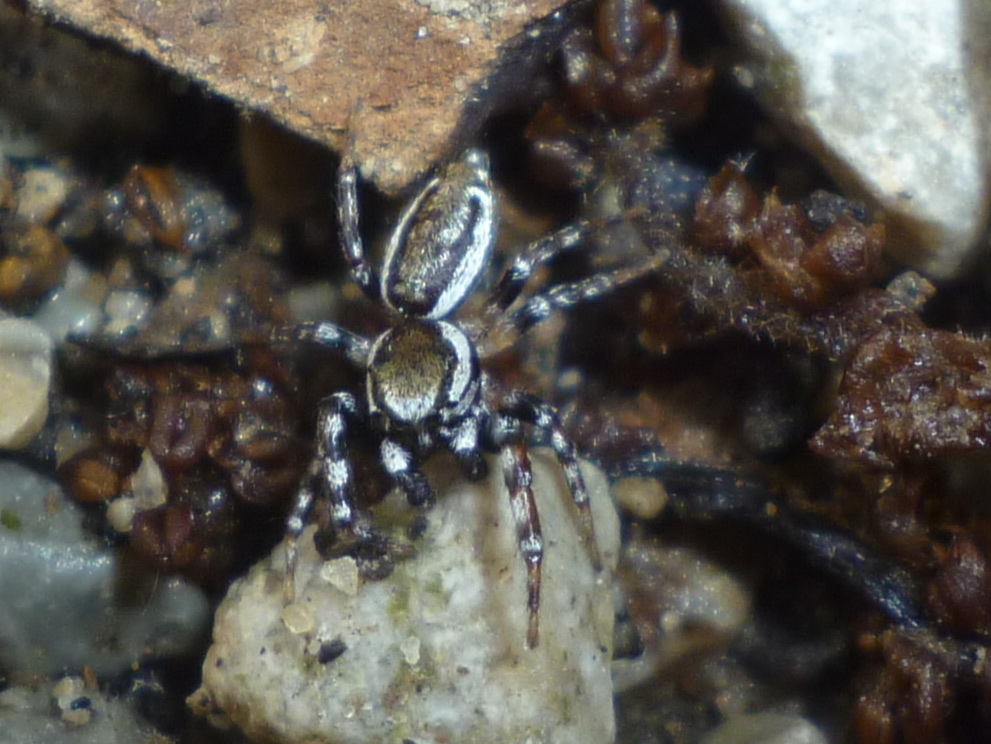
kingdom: Animalia
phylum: Arthropoda
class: Arachnida
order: Araneae
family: Salticidae
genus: Pelegrina
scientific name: Pelegrina proterva
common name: Common white-cheeked jumping spider
